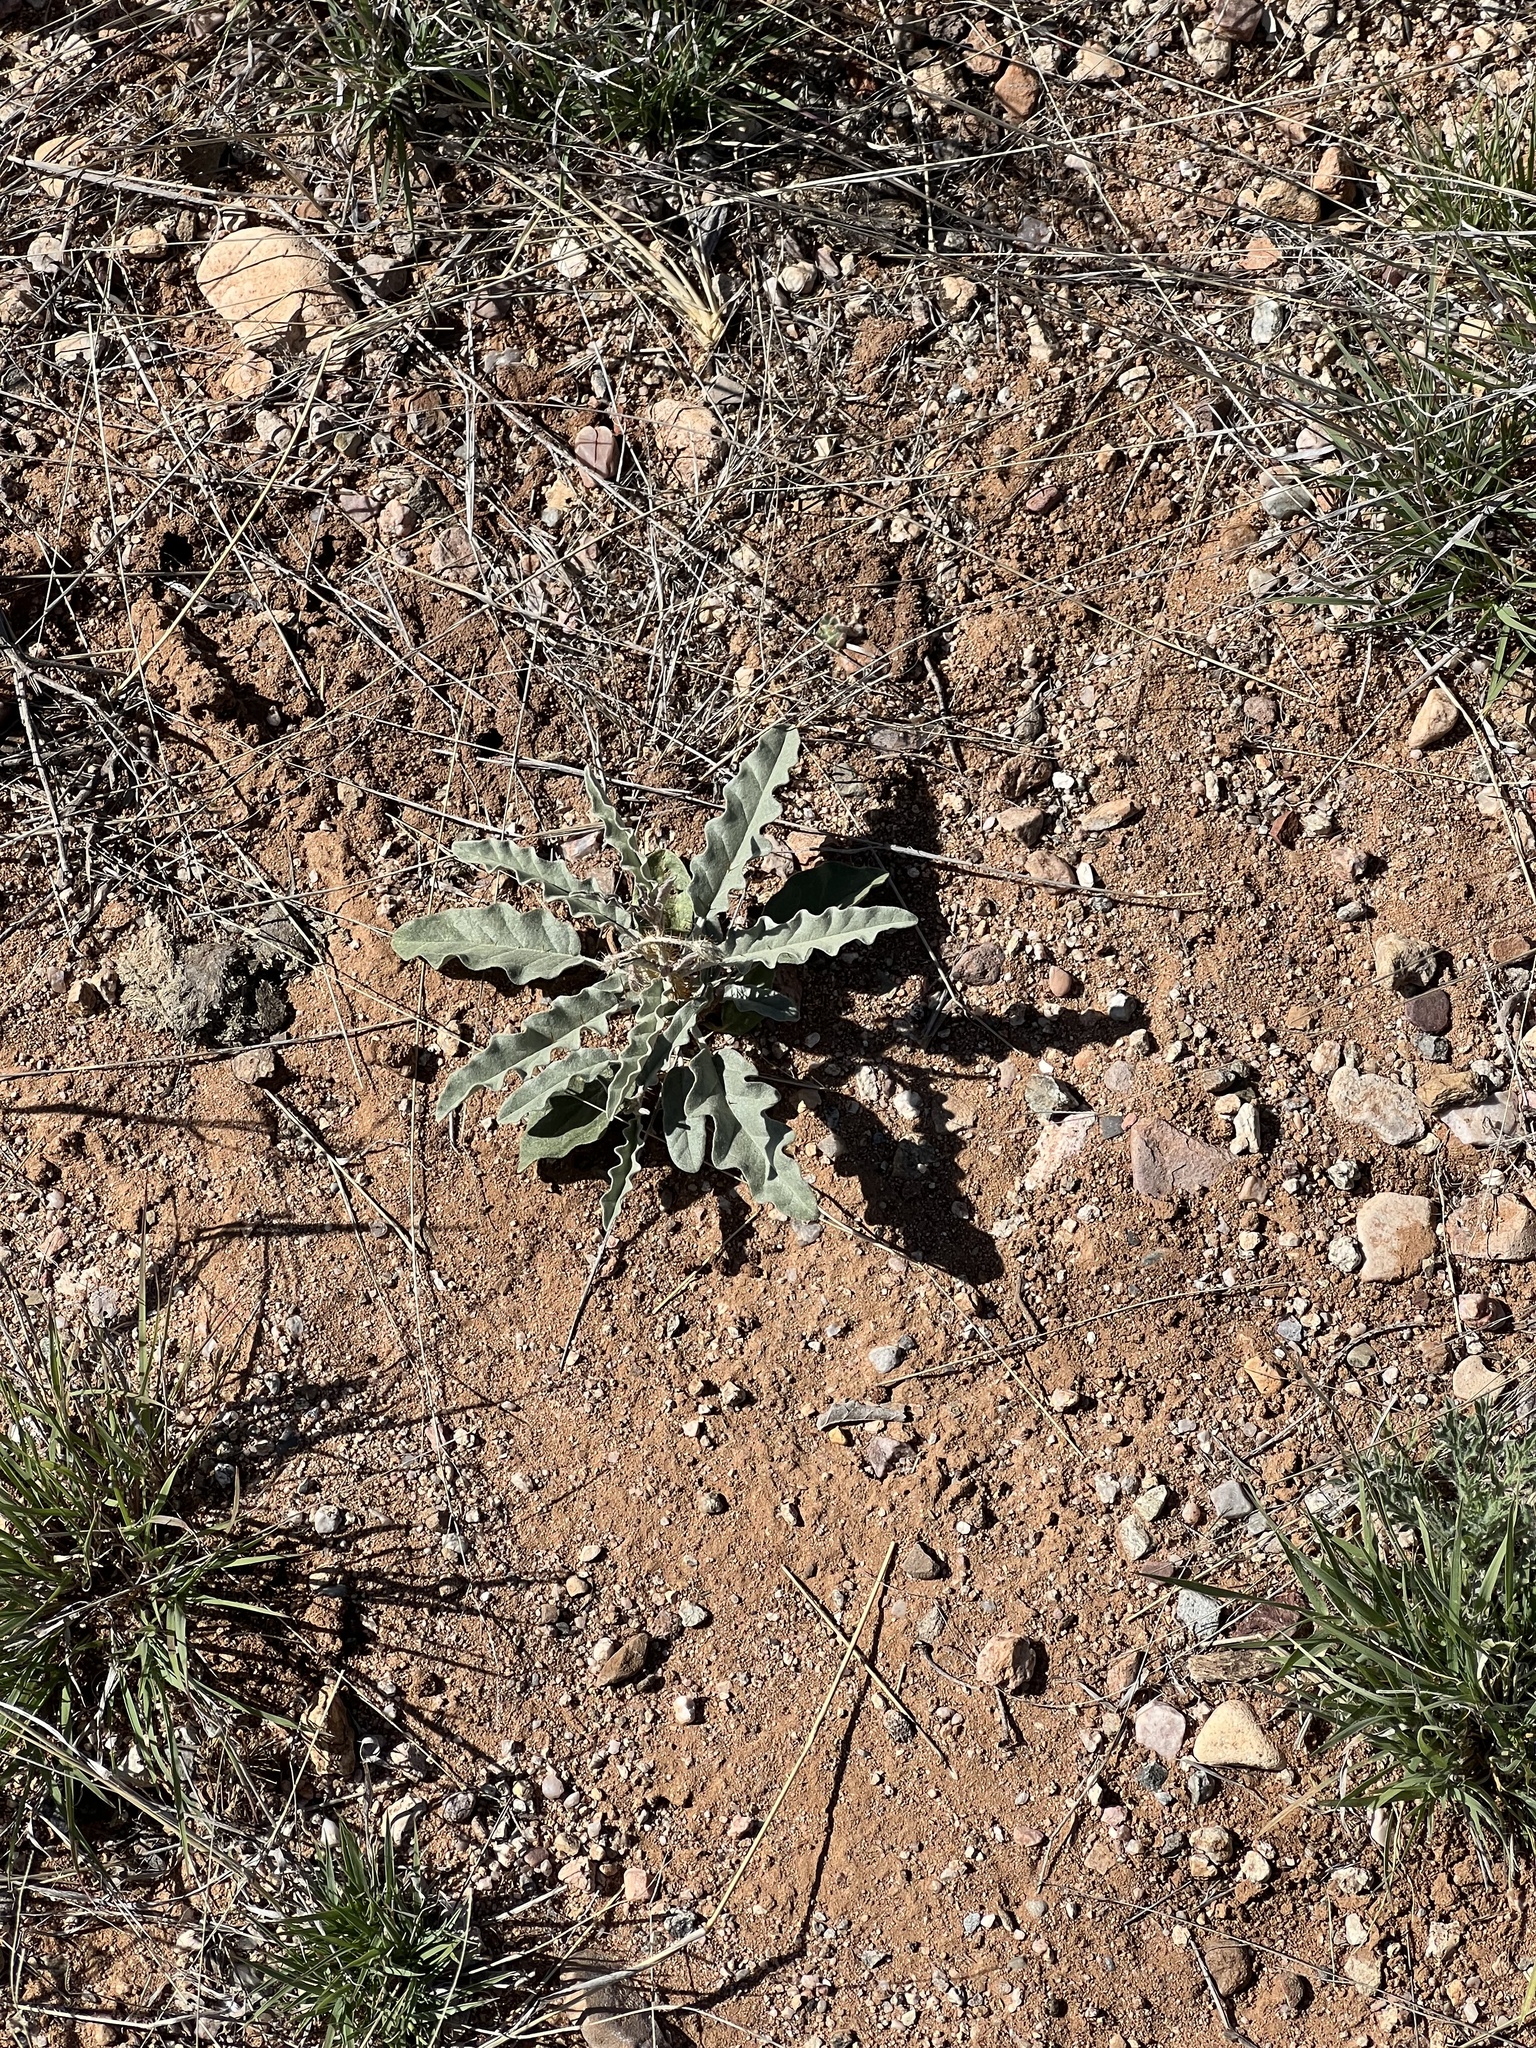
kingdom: Plantae
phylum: Tracheophyta
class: Magnoliopsida
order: Solanales
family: Solanaceae
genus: Solanum
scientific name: Solanum elaeagnifolium
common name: Silverleaf nightshade
